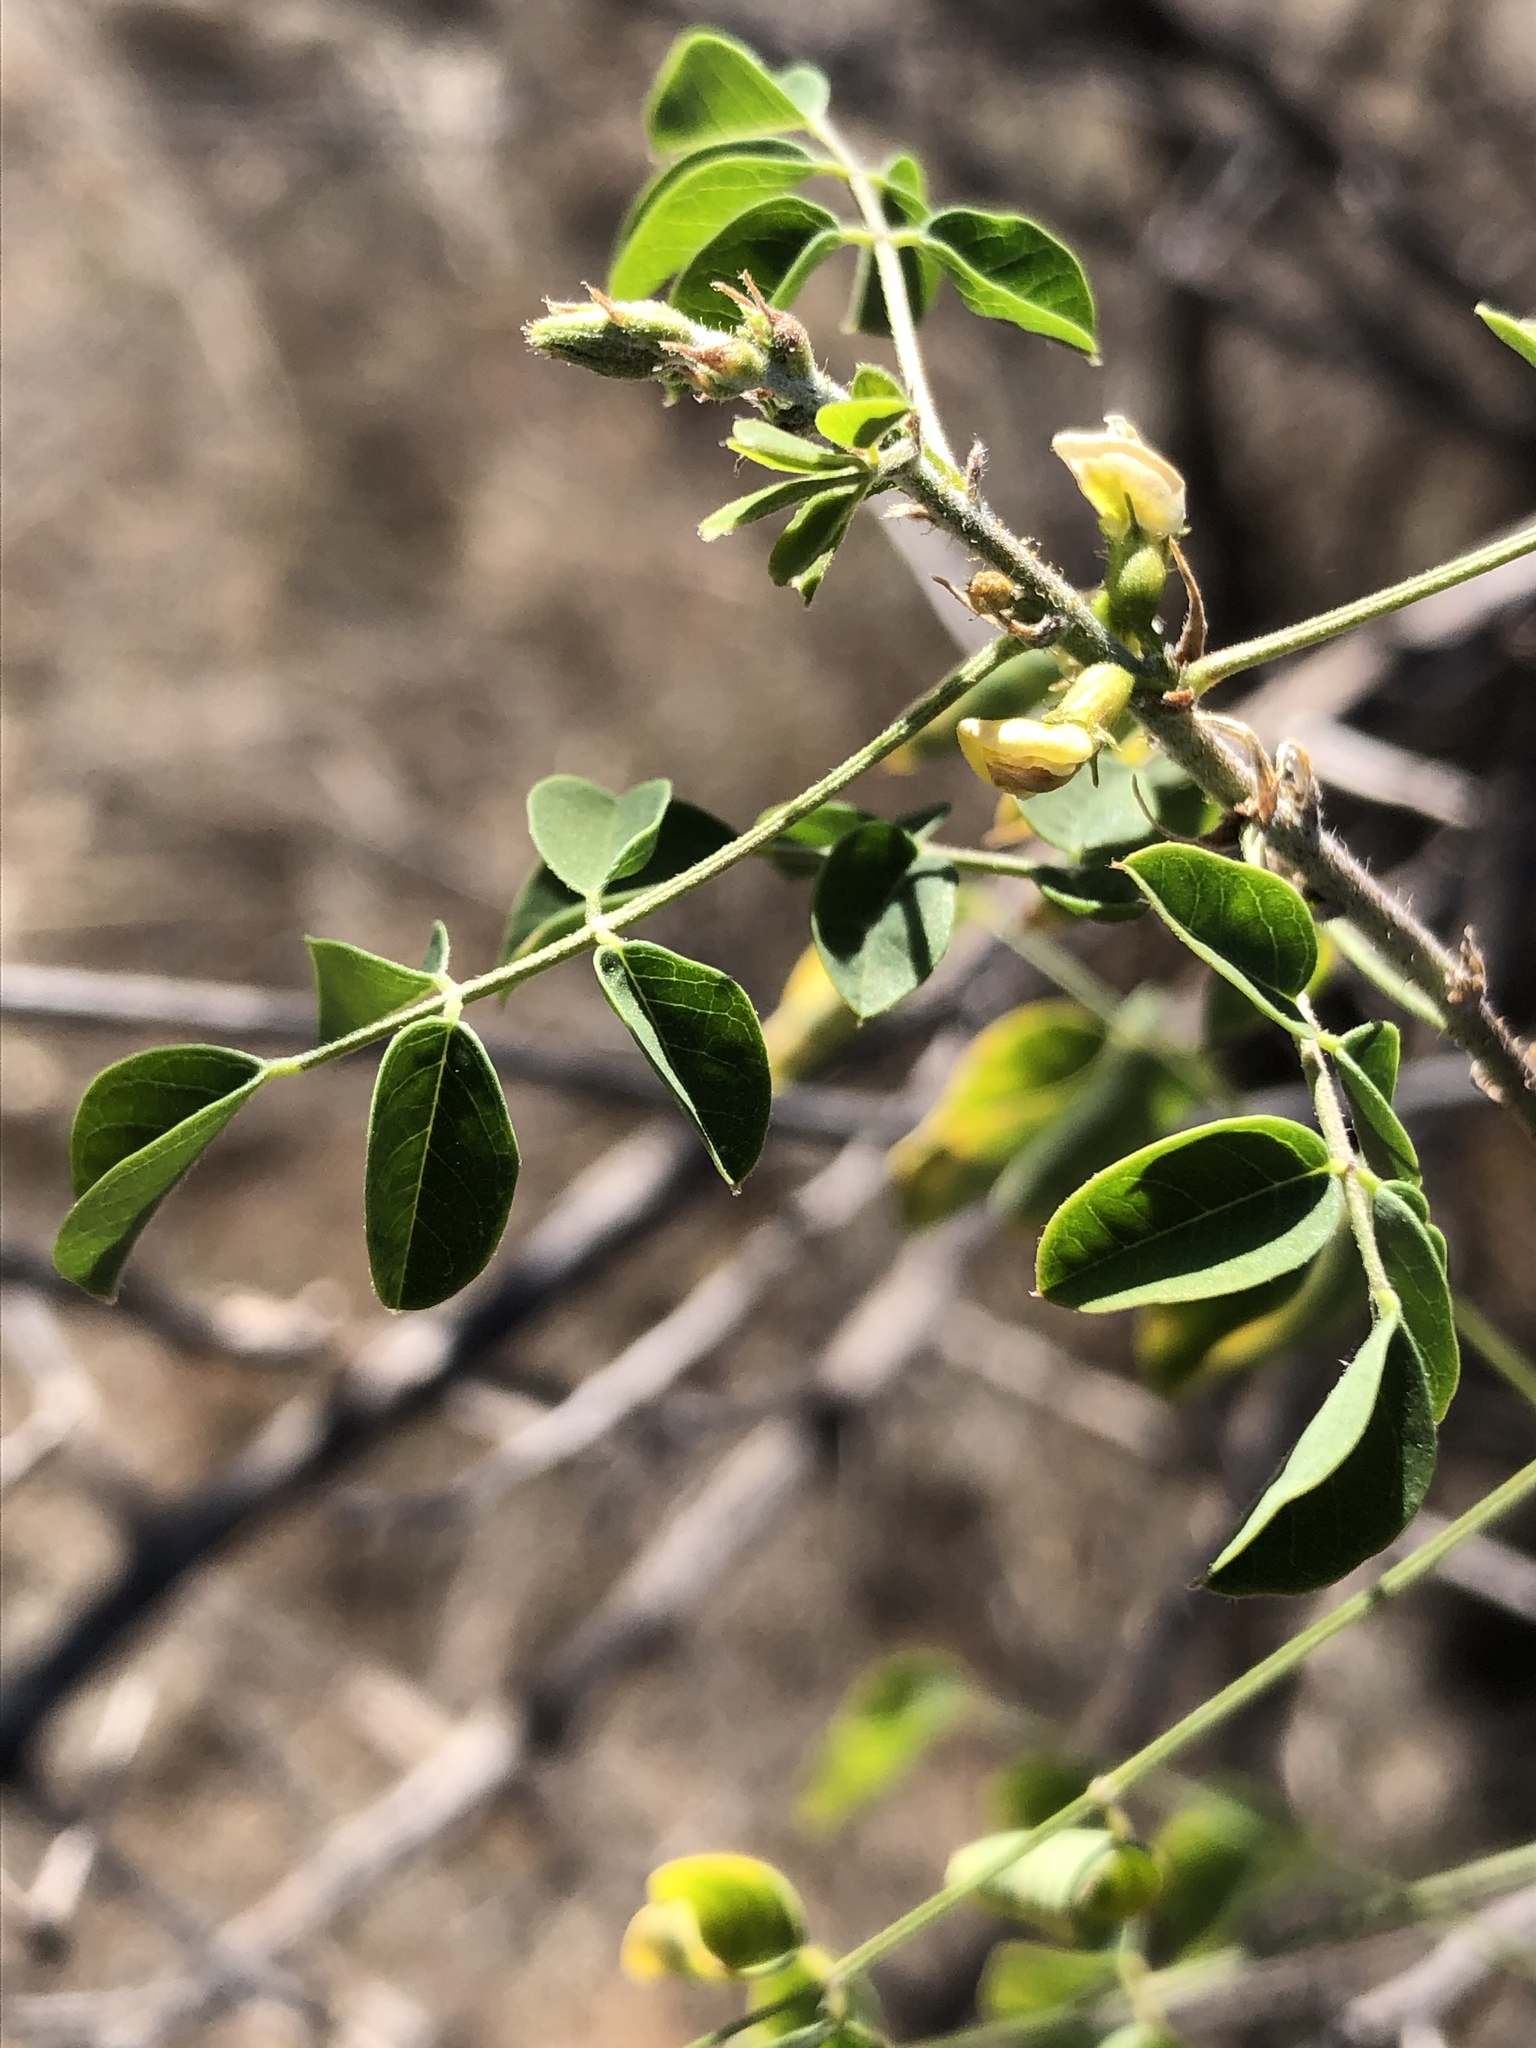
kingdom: Plantae
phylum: Tracheophyta
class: Magnoliopsida
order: Fabales
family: Fabaceae
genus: Nissolia
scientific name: Nissolia schottii
